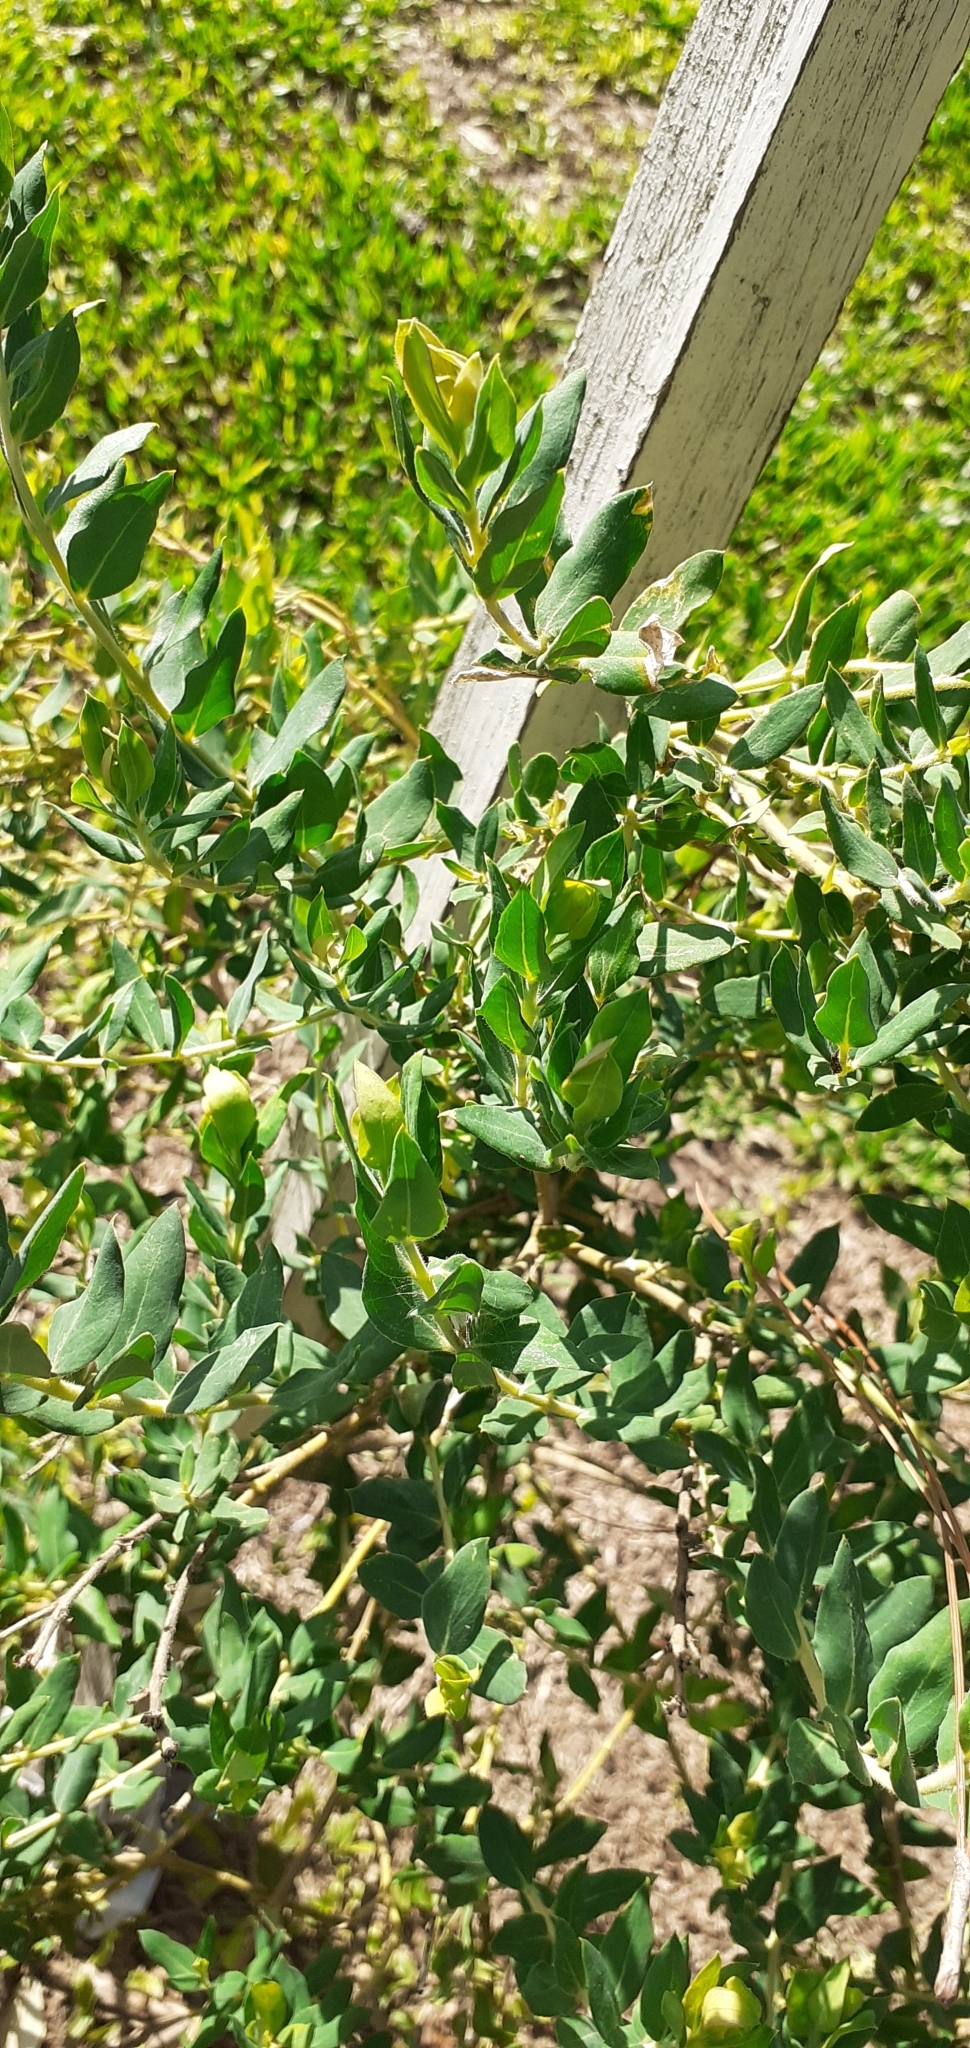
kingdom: Plantae
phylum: Tracheophyta
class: Magnoliopsida
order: Fabales
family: Fabaceae
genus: Lathyrus
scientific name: Lathyrus nervosus
